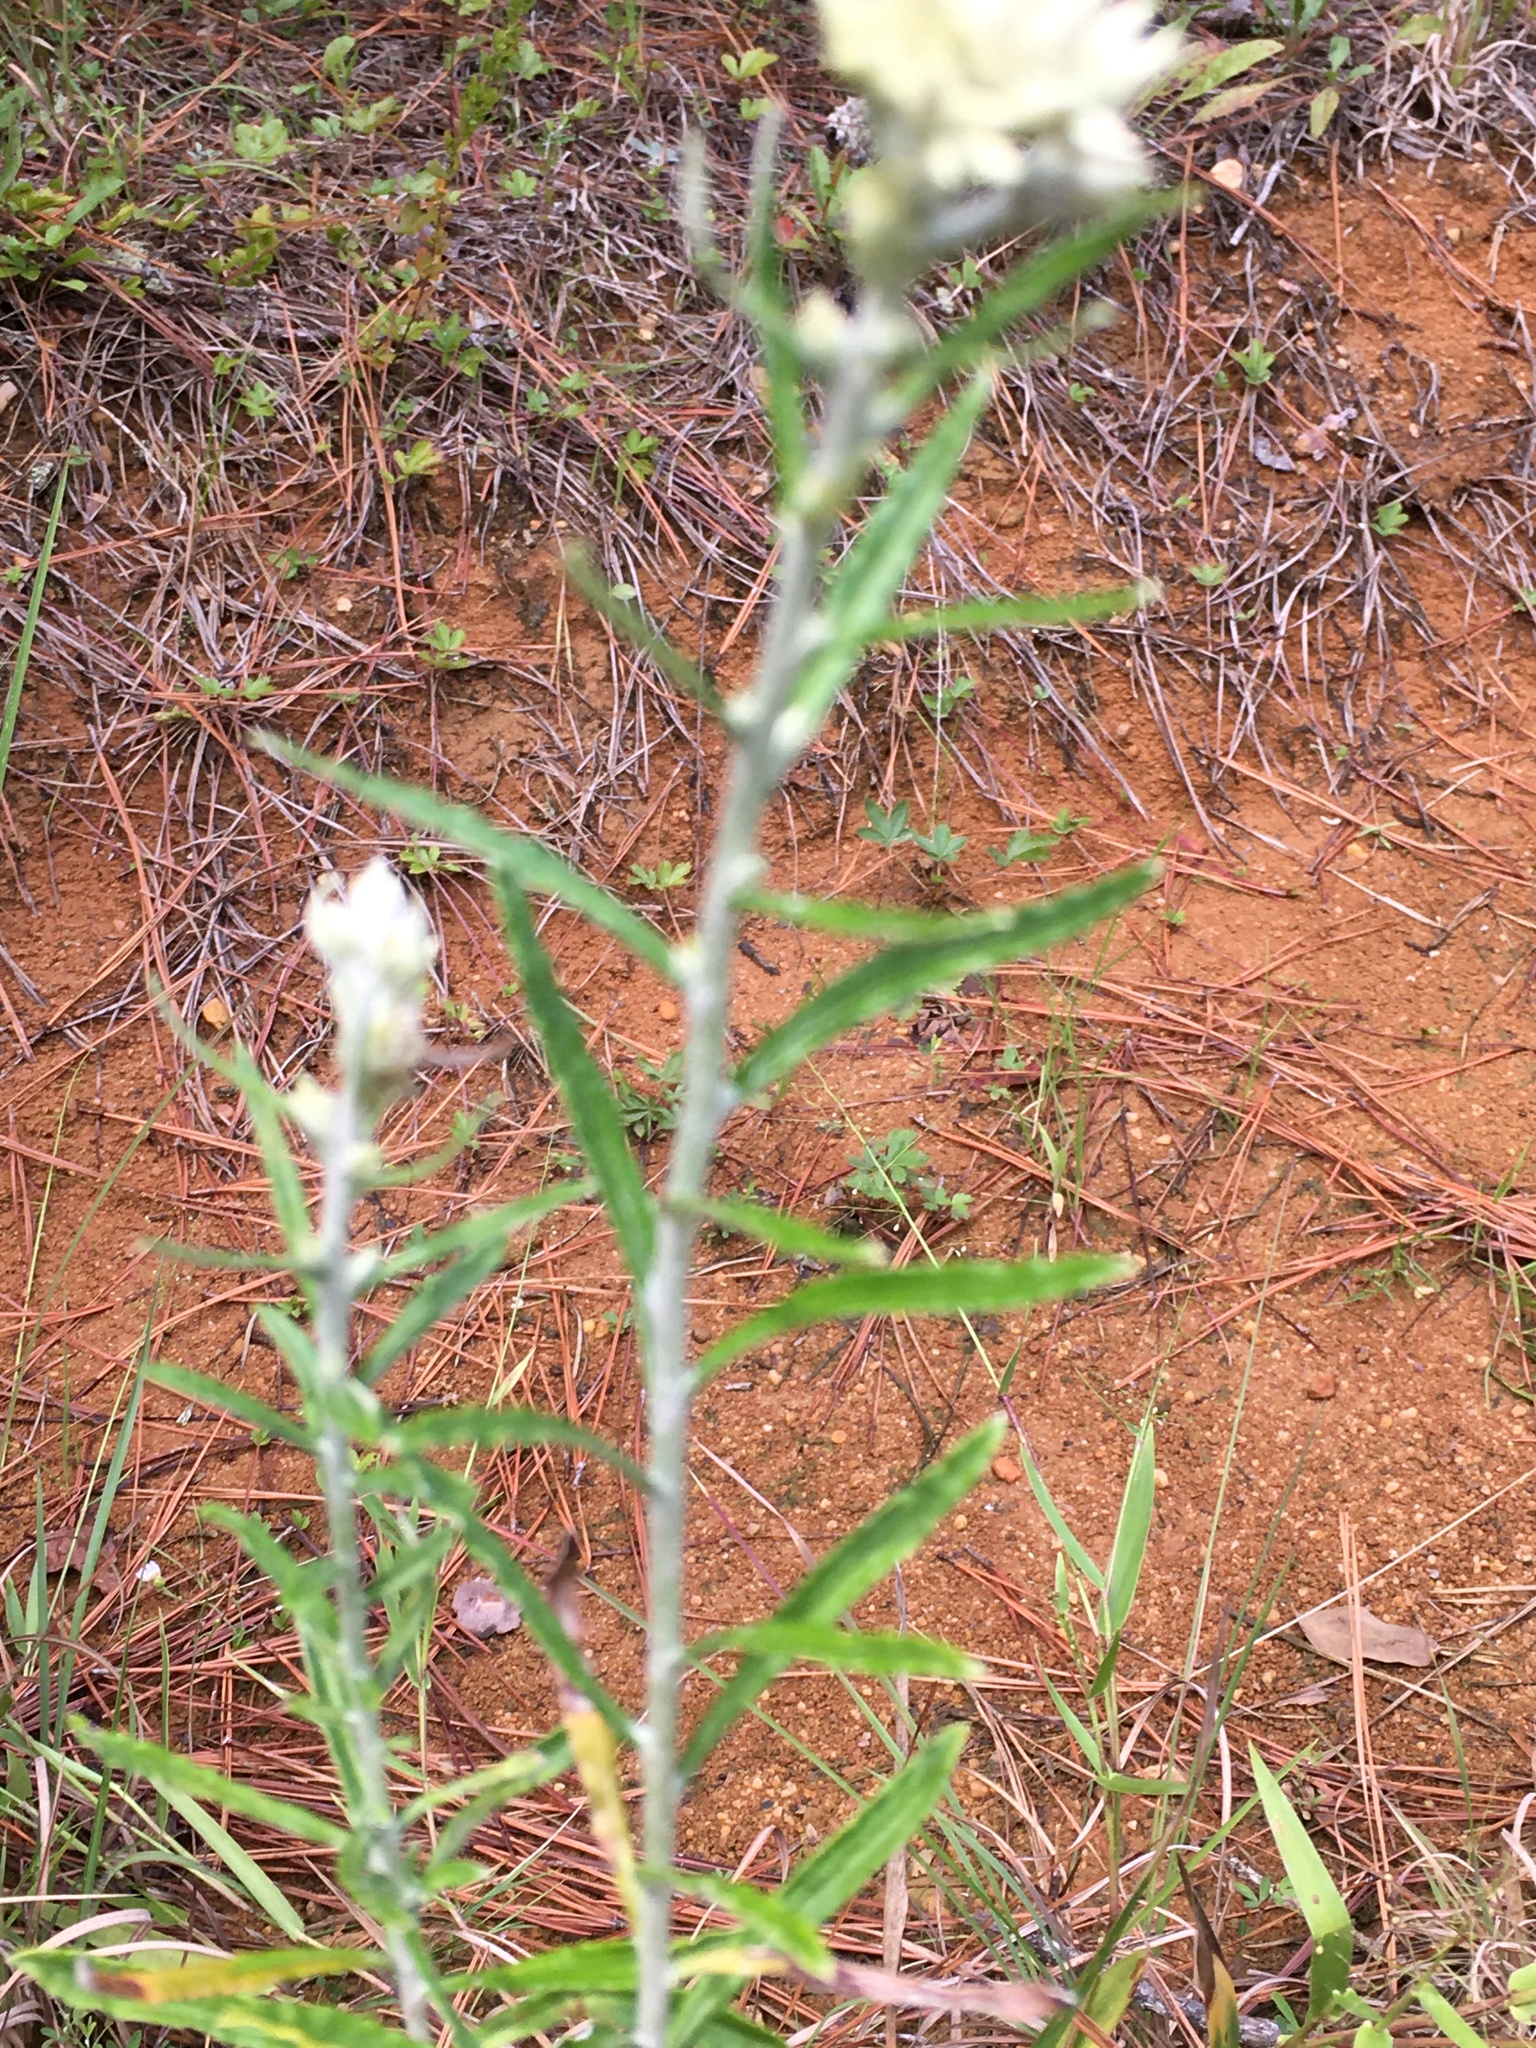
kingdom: Plantae
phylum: Tracheophyta
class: Magnoliopsida
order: Asterales
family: Asteraceae
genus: Pseudognaphalium
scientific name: Pseudognaphalium obtusifolium
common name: Eastern rabbit-tobacco
